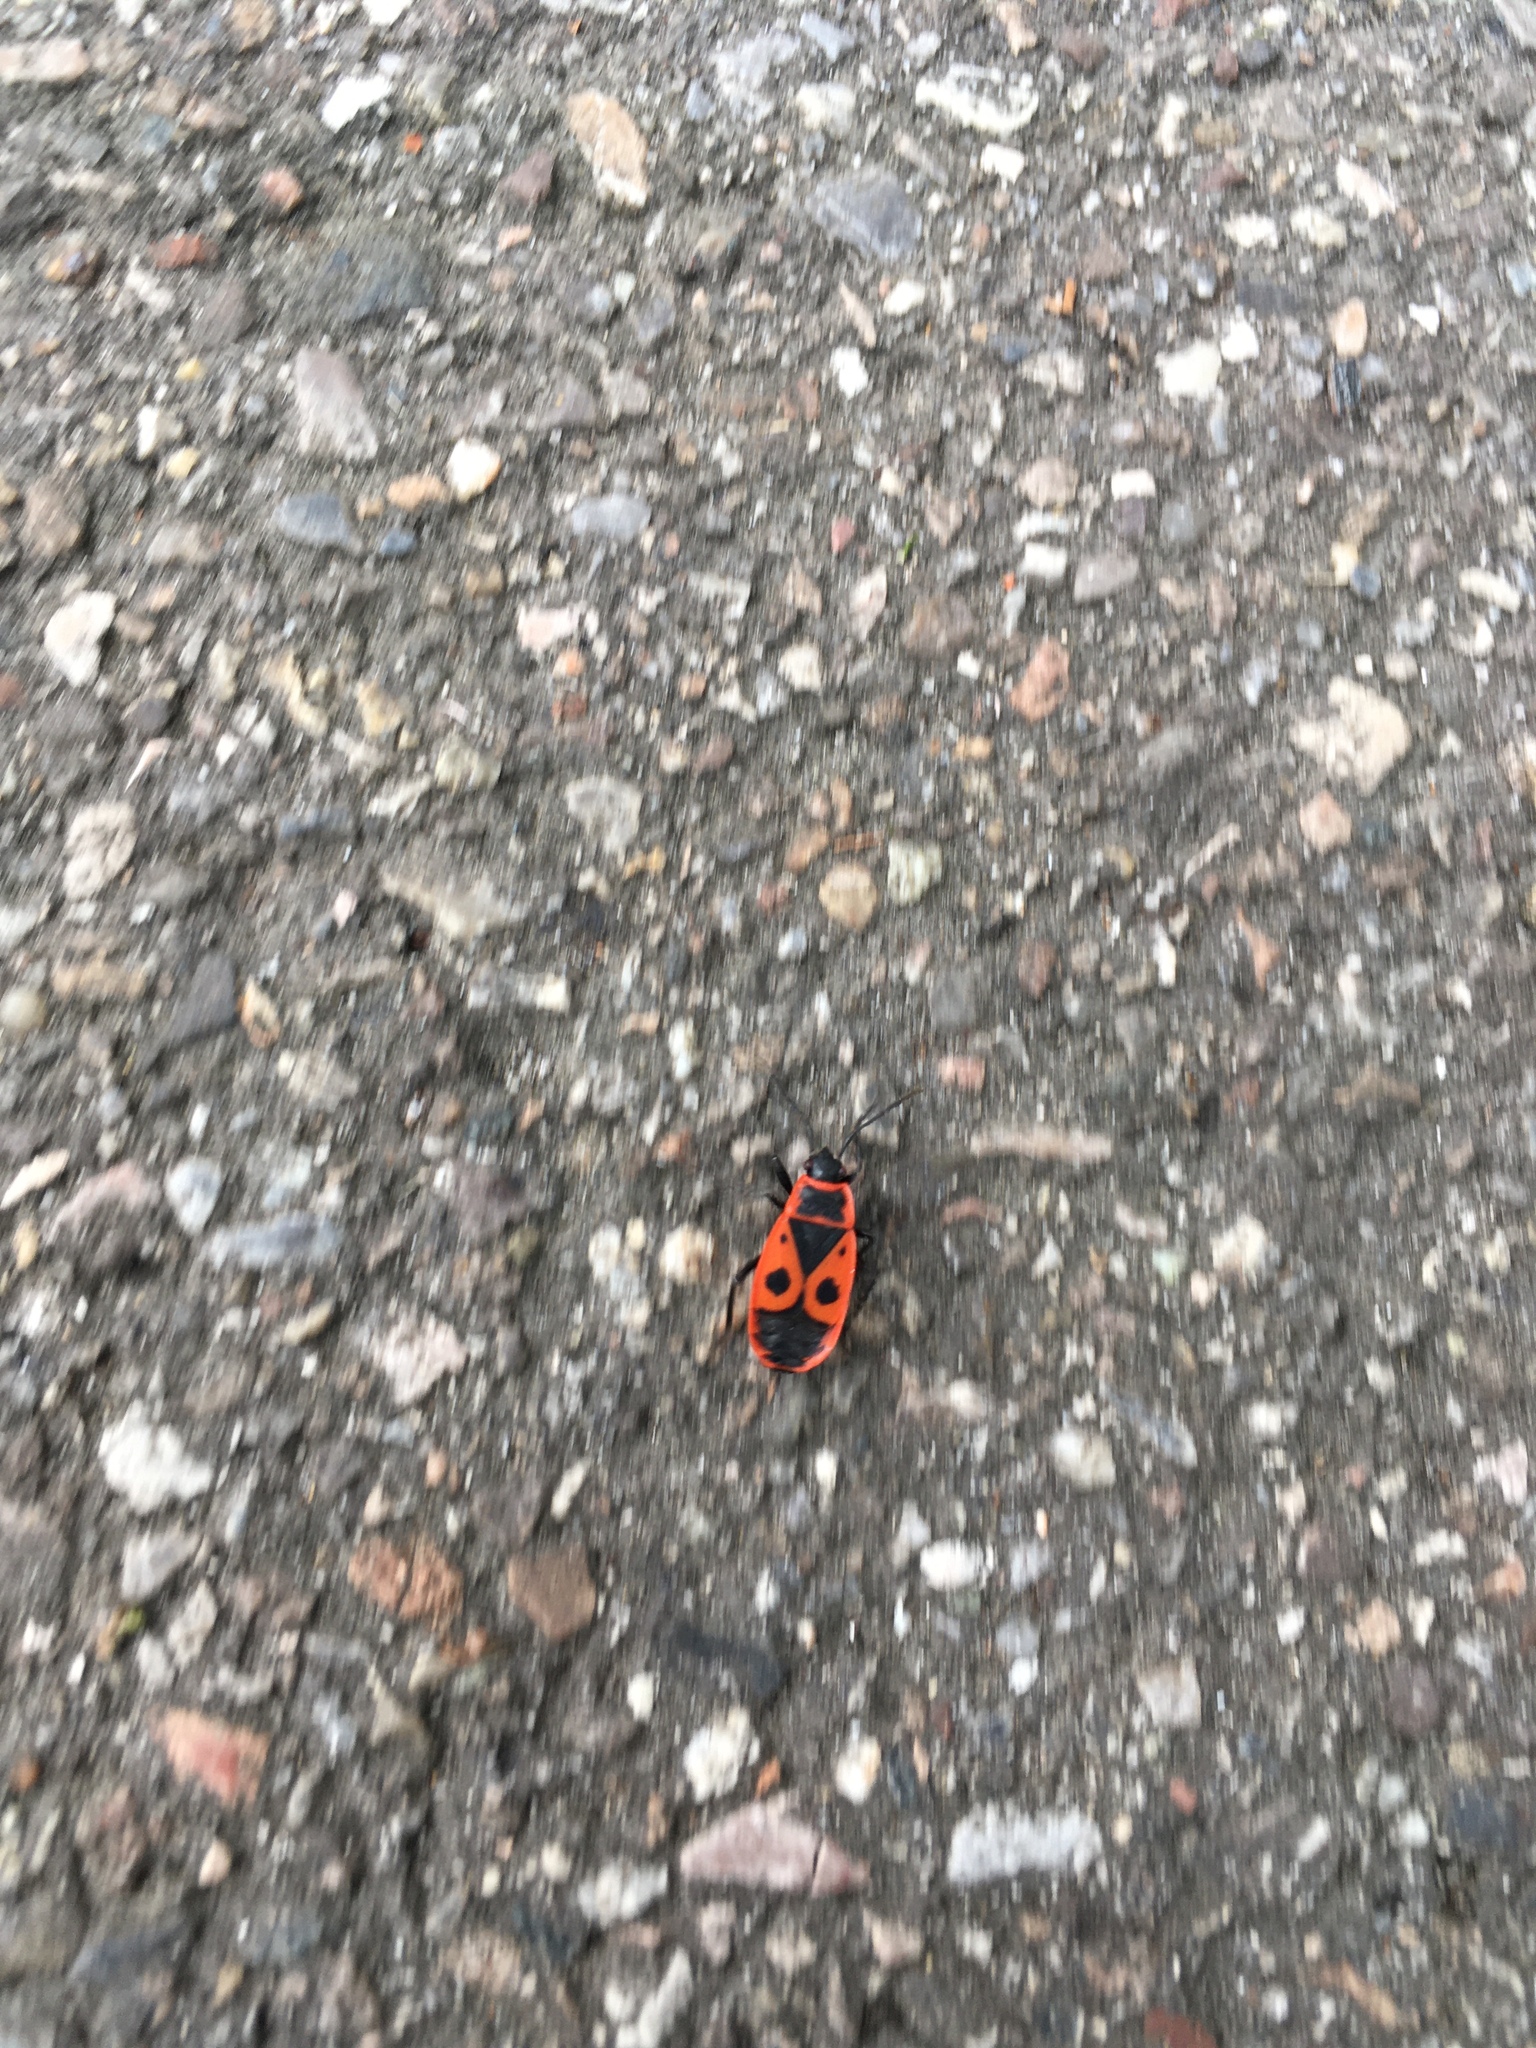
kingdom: Animalia
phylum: Arthropoda
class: Insecta
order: Hemiptera
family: Pyrrhocoridae
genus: Pyrrhocoris
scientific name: Pyrrhocoris apterus
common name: Firebug
